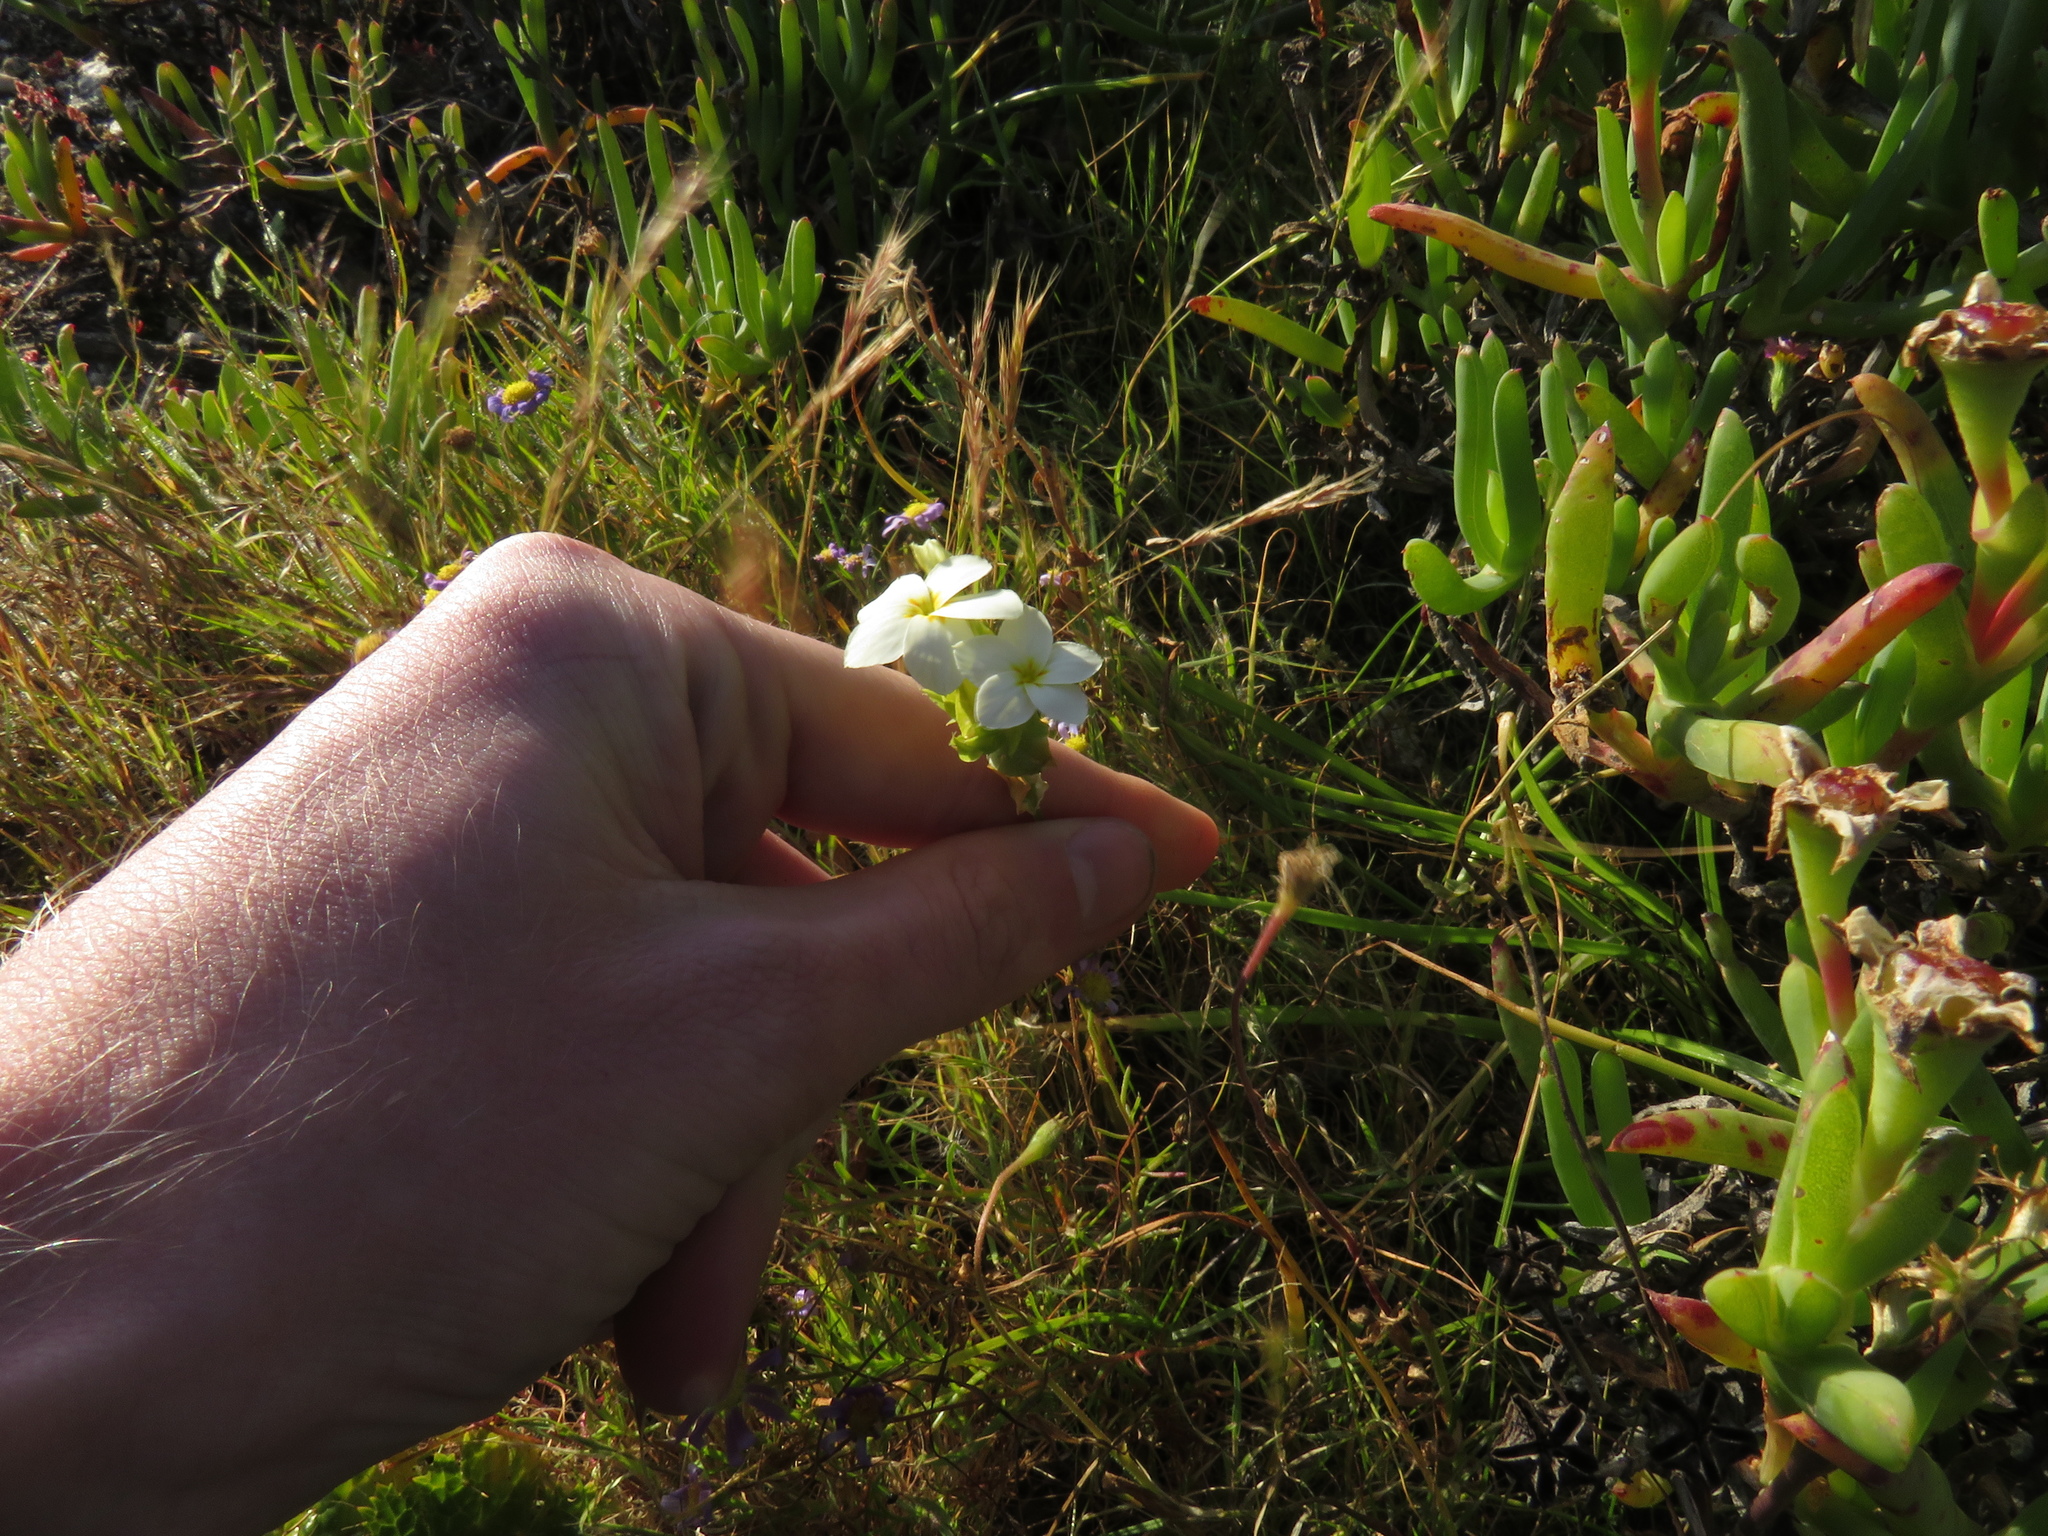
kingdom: Plantae
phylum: Tracheophyta
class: Magnoliopsida
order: Gentianales
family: Gentianaceae
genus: Sebaea
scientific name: Sebaea exacoides
